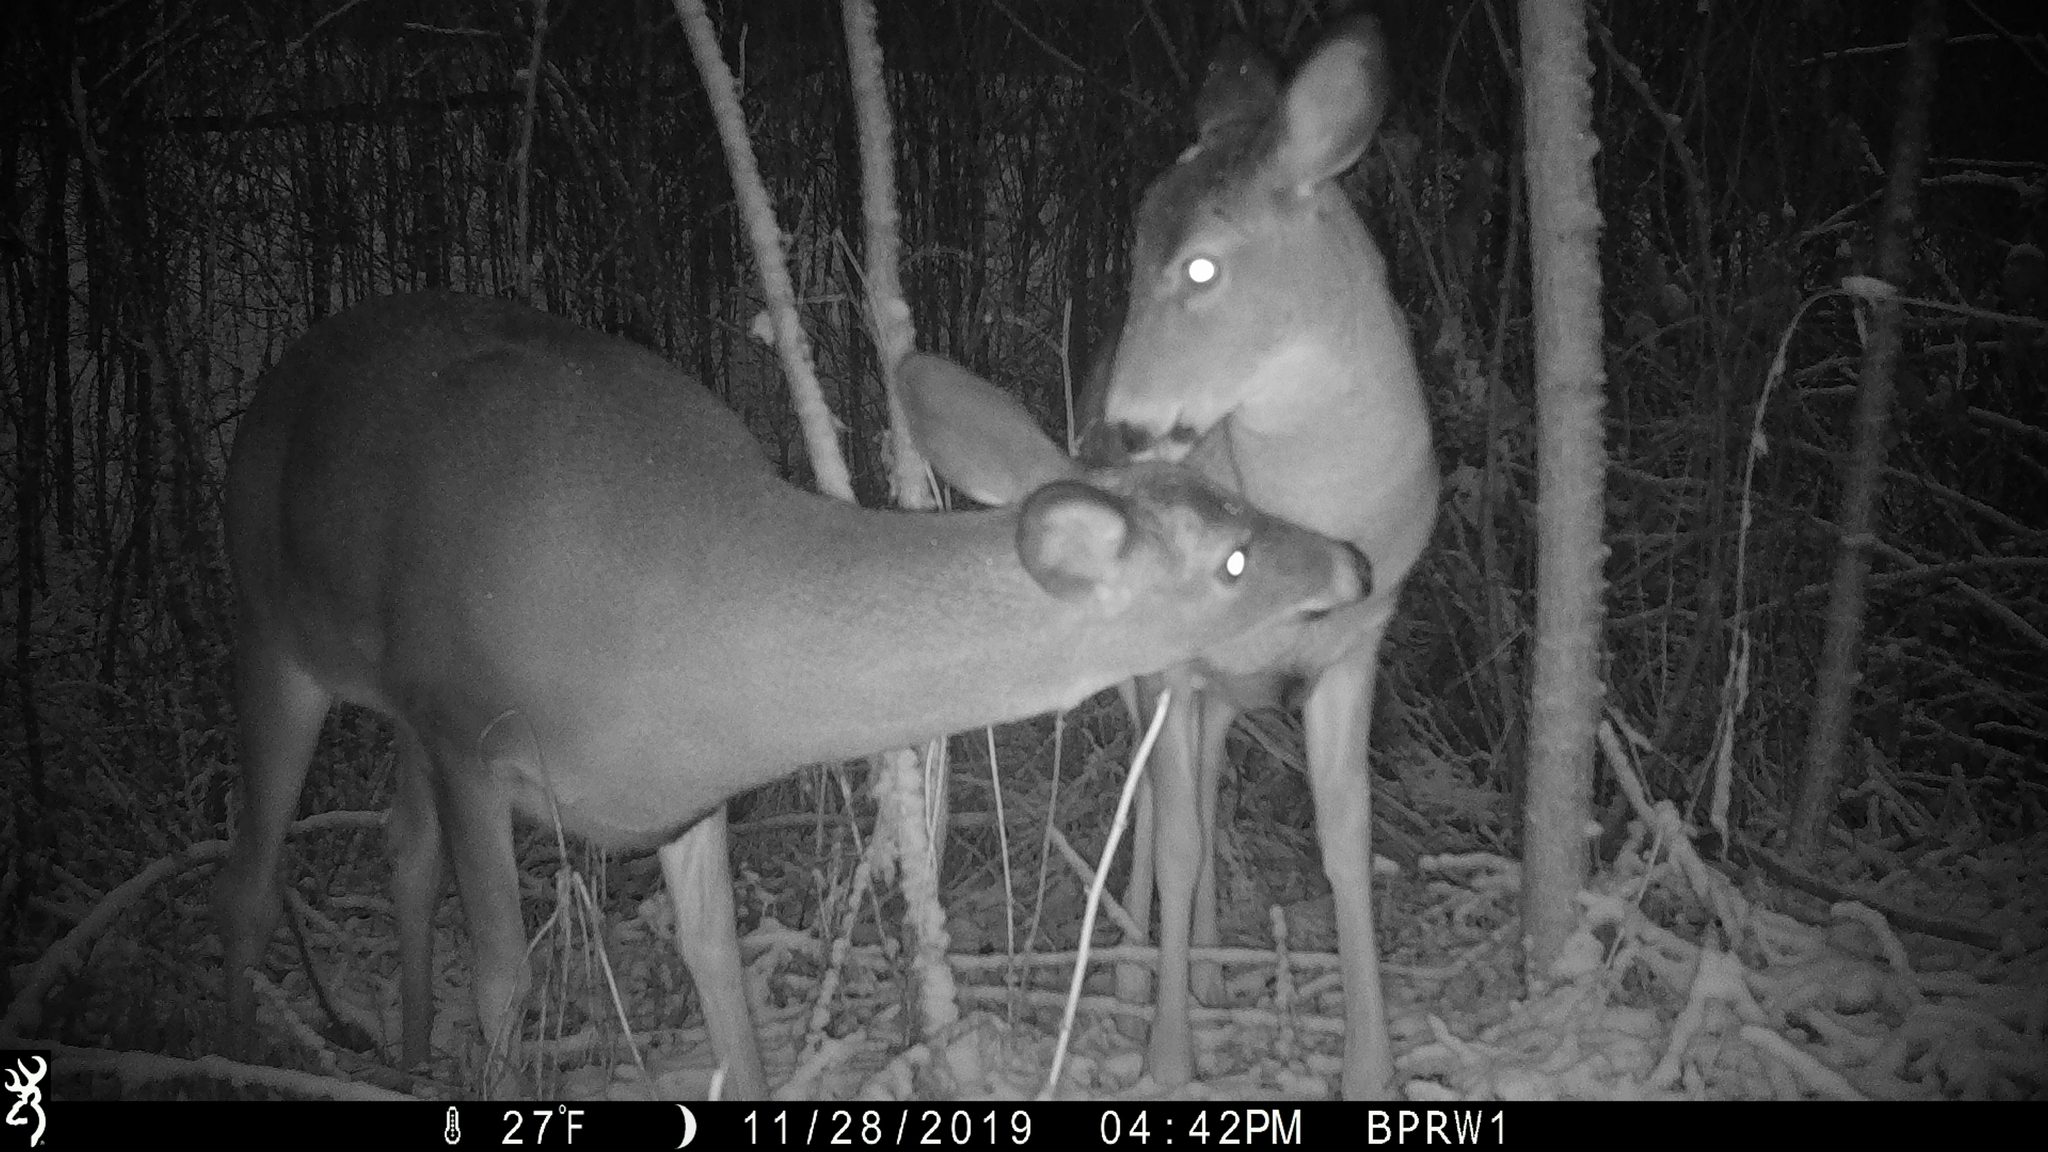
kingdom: Animalia
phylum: Chordata
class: Mammalia
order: Artiodactyla
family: Cervidae
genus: Odocoileus
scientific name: Odocoileus virginianus
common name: White-tailed deer
